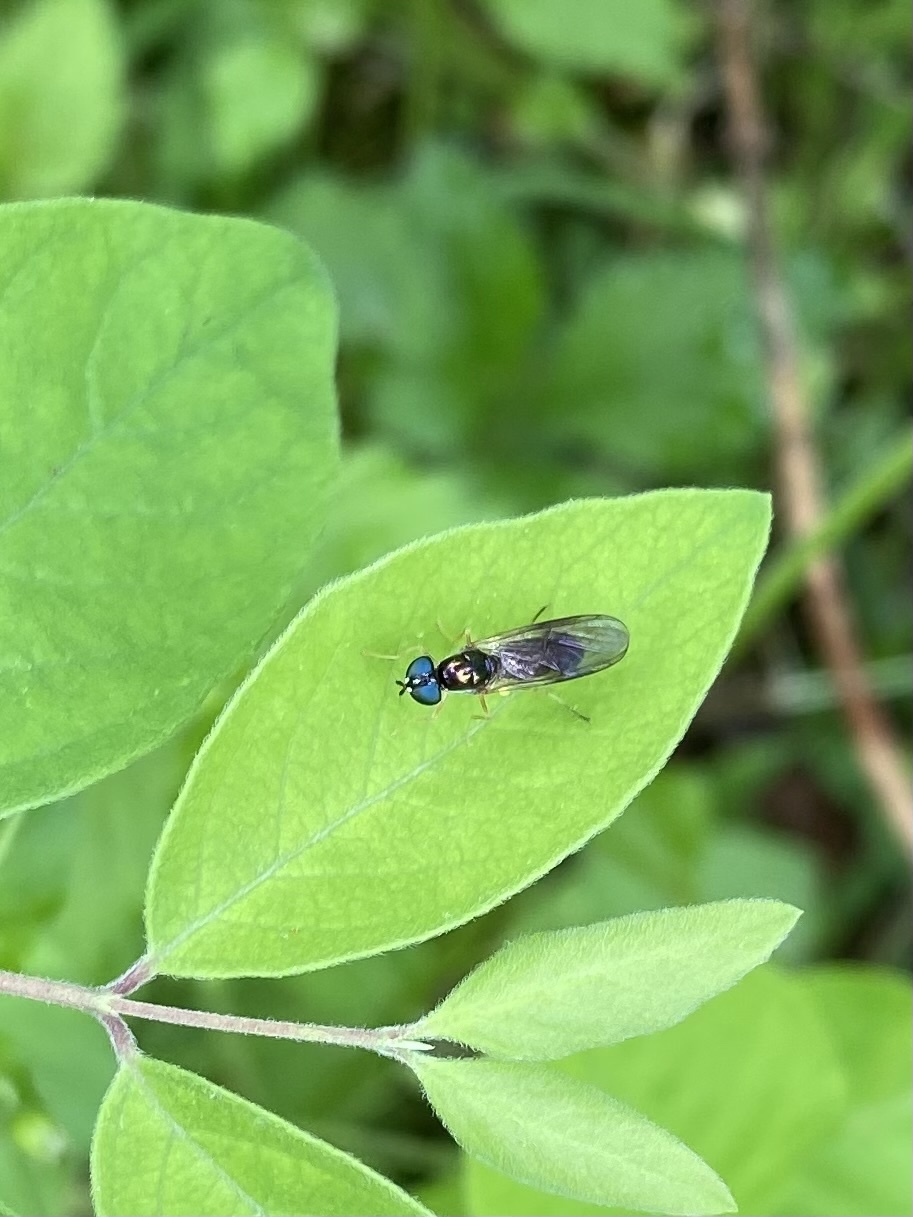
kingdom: Animalia
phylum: Arthropoda
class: Insecta
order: Diptera
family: Stratiomyidae
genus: Sargus
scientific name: Sargus decorus
